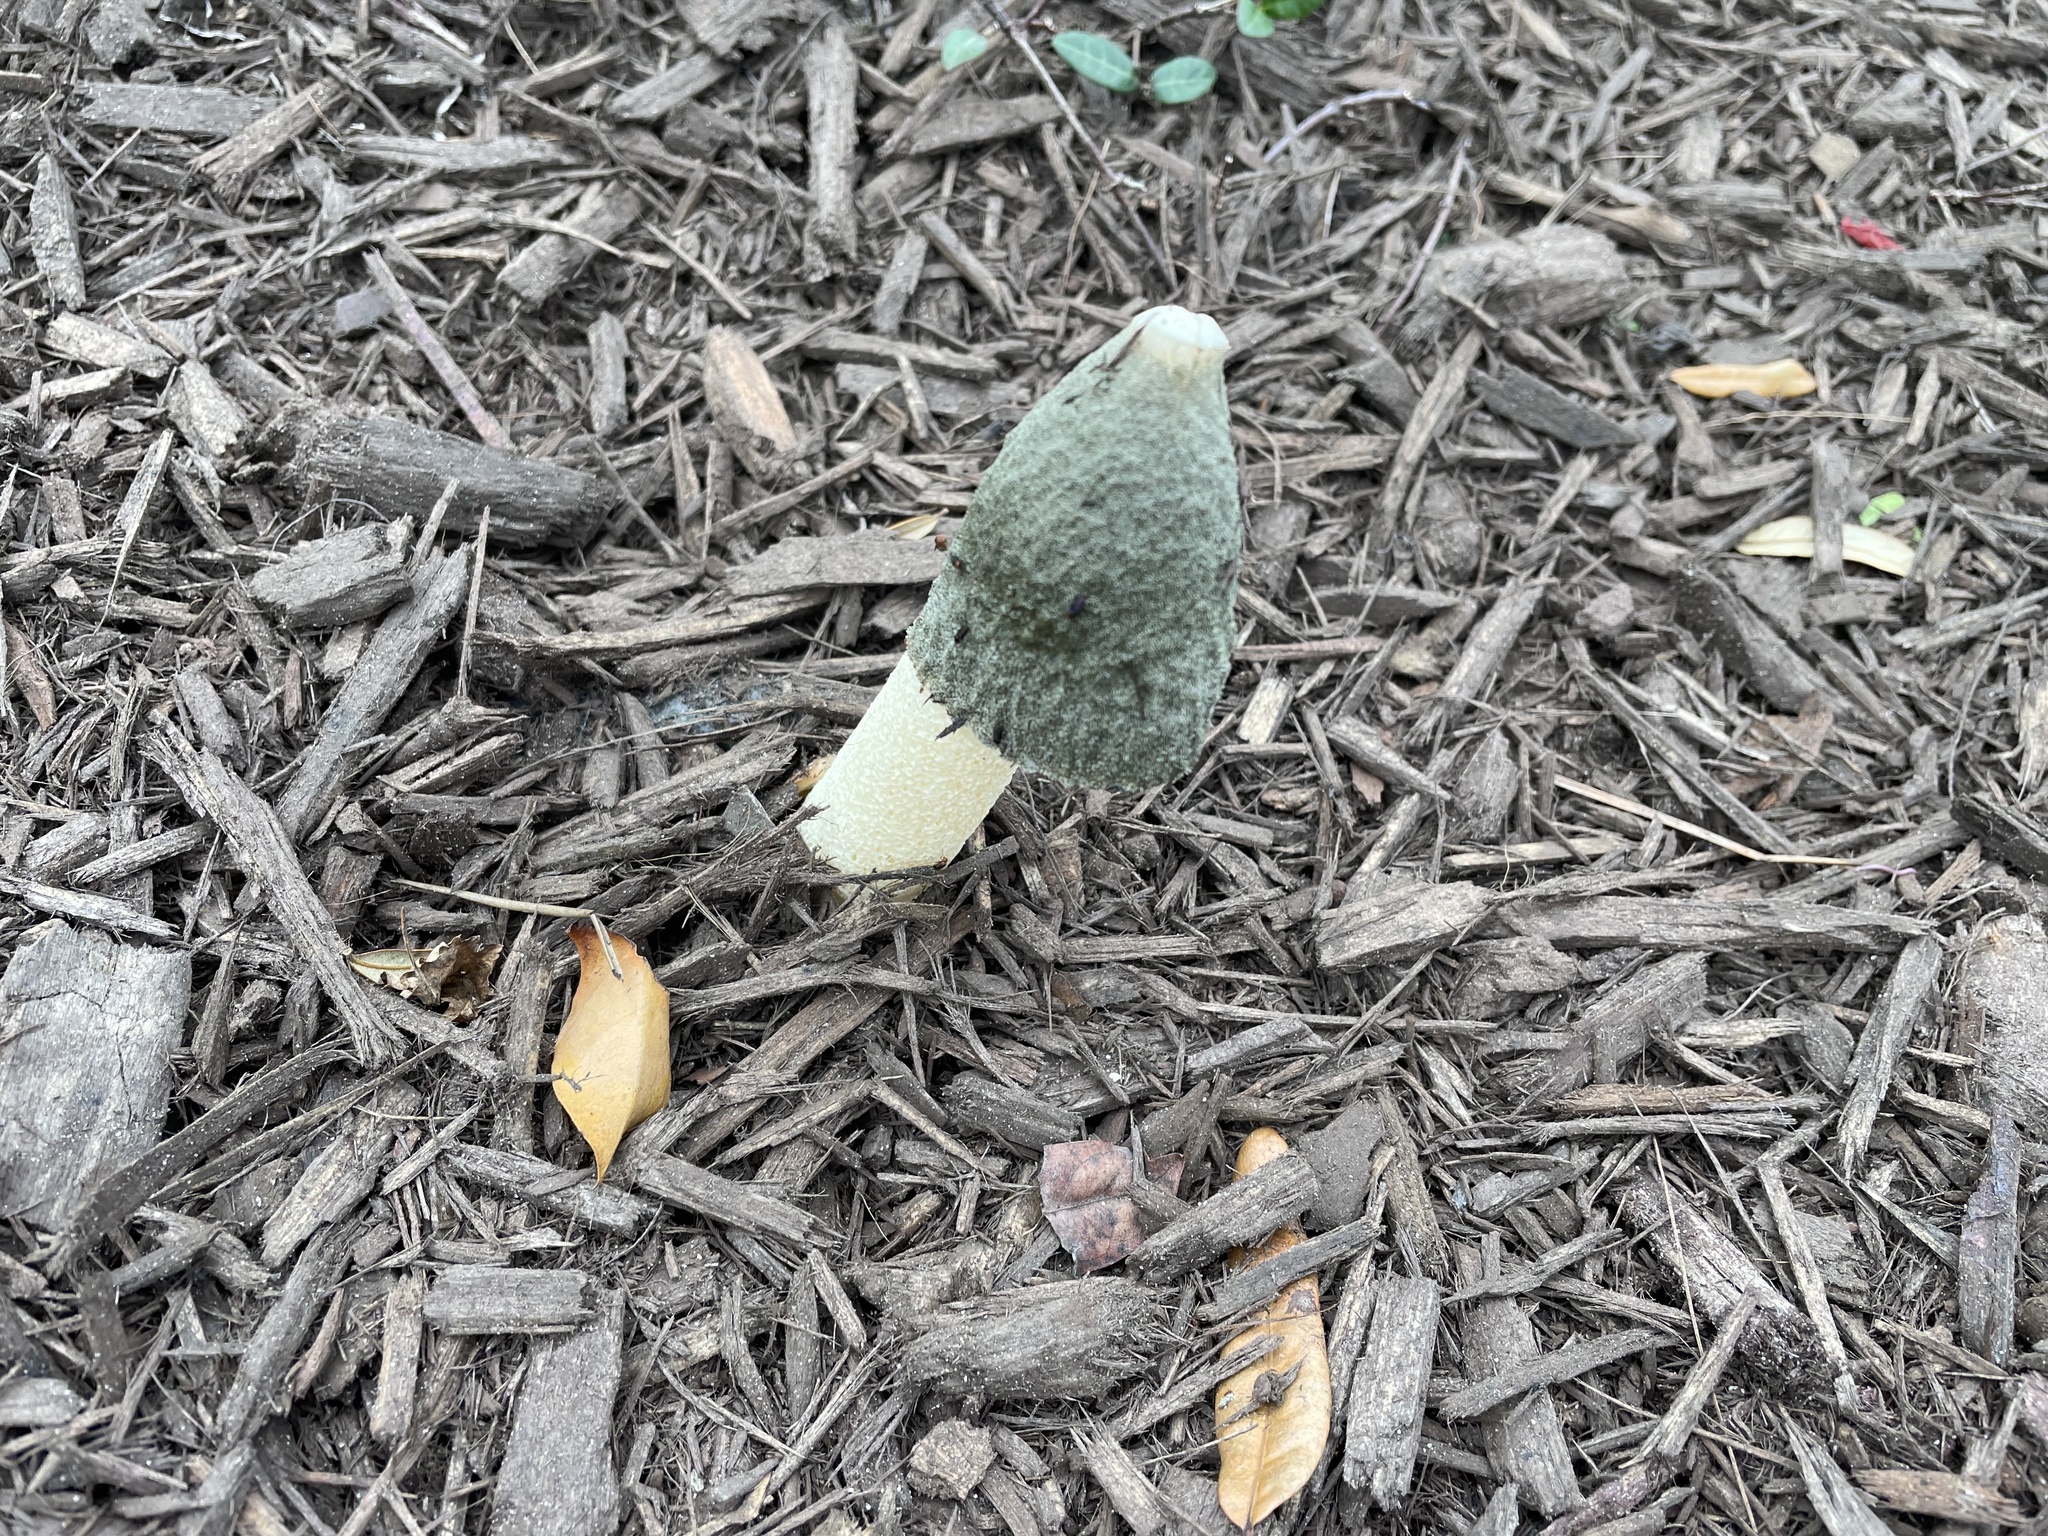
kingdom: Fungi
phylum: Basidiomycota
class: Agaricomycetes
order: Phallales
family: Phallaceae
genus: Phallus
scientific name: Phallus ravenelii
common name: Ravenel's stinkhorn
